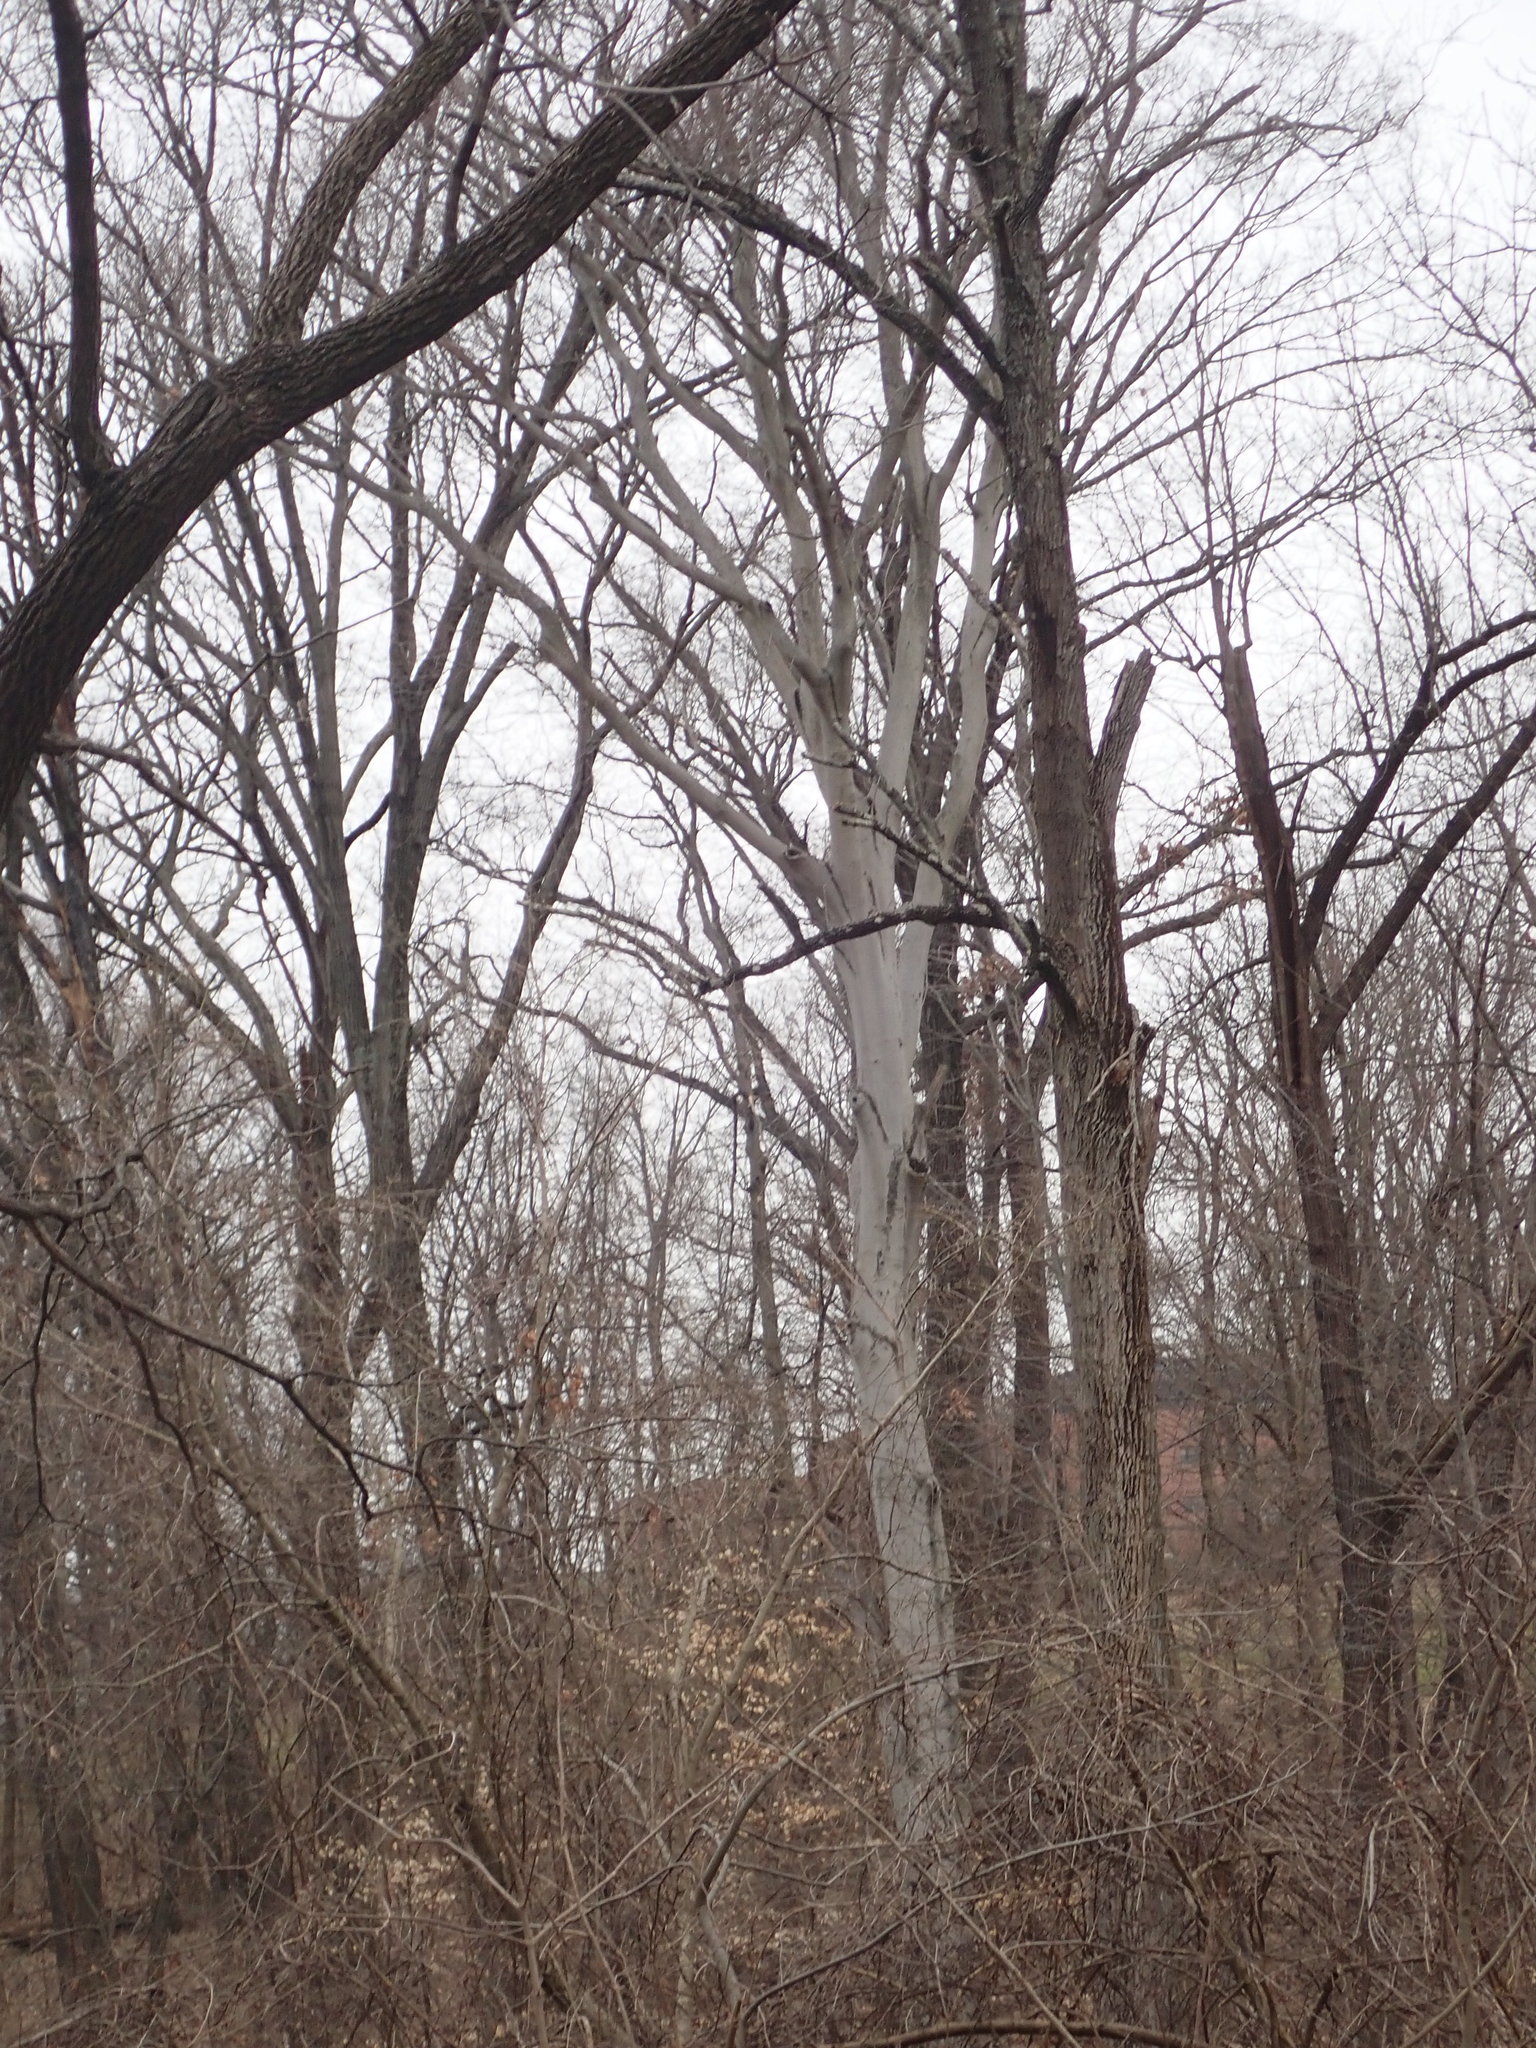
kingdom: Plantae
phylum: Tracheophyta
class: Magnoliopsida
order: Proteales
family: Platanaceae
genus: Platanus
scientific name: Platanus occidentalis
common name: American sycamore
